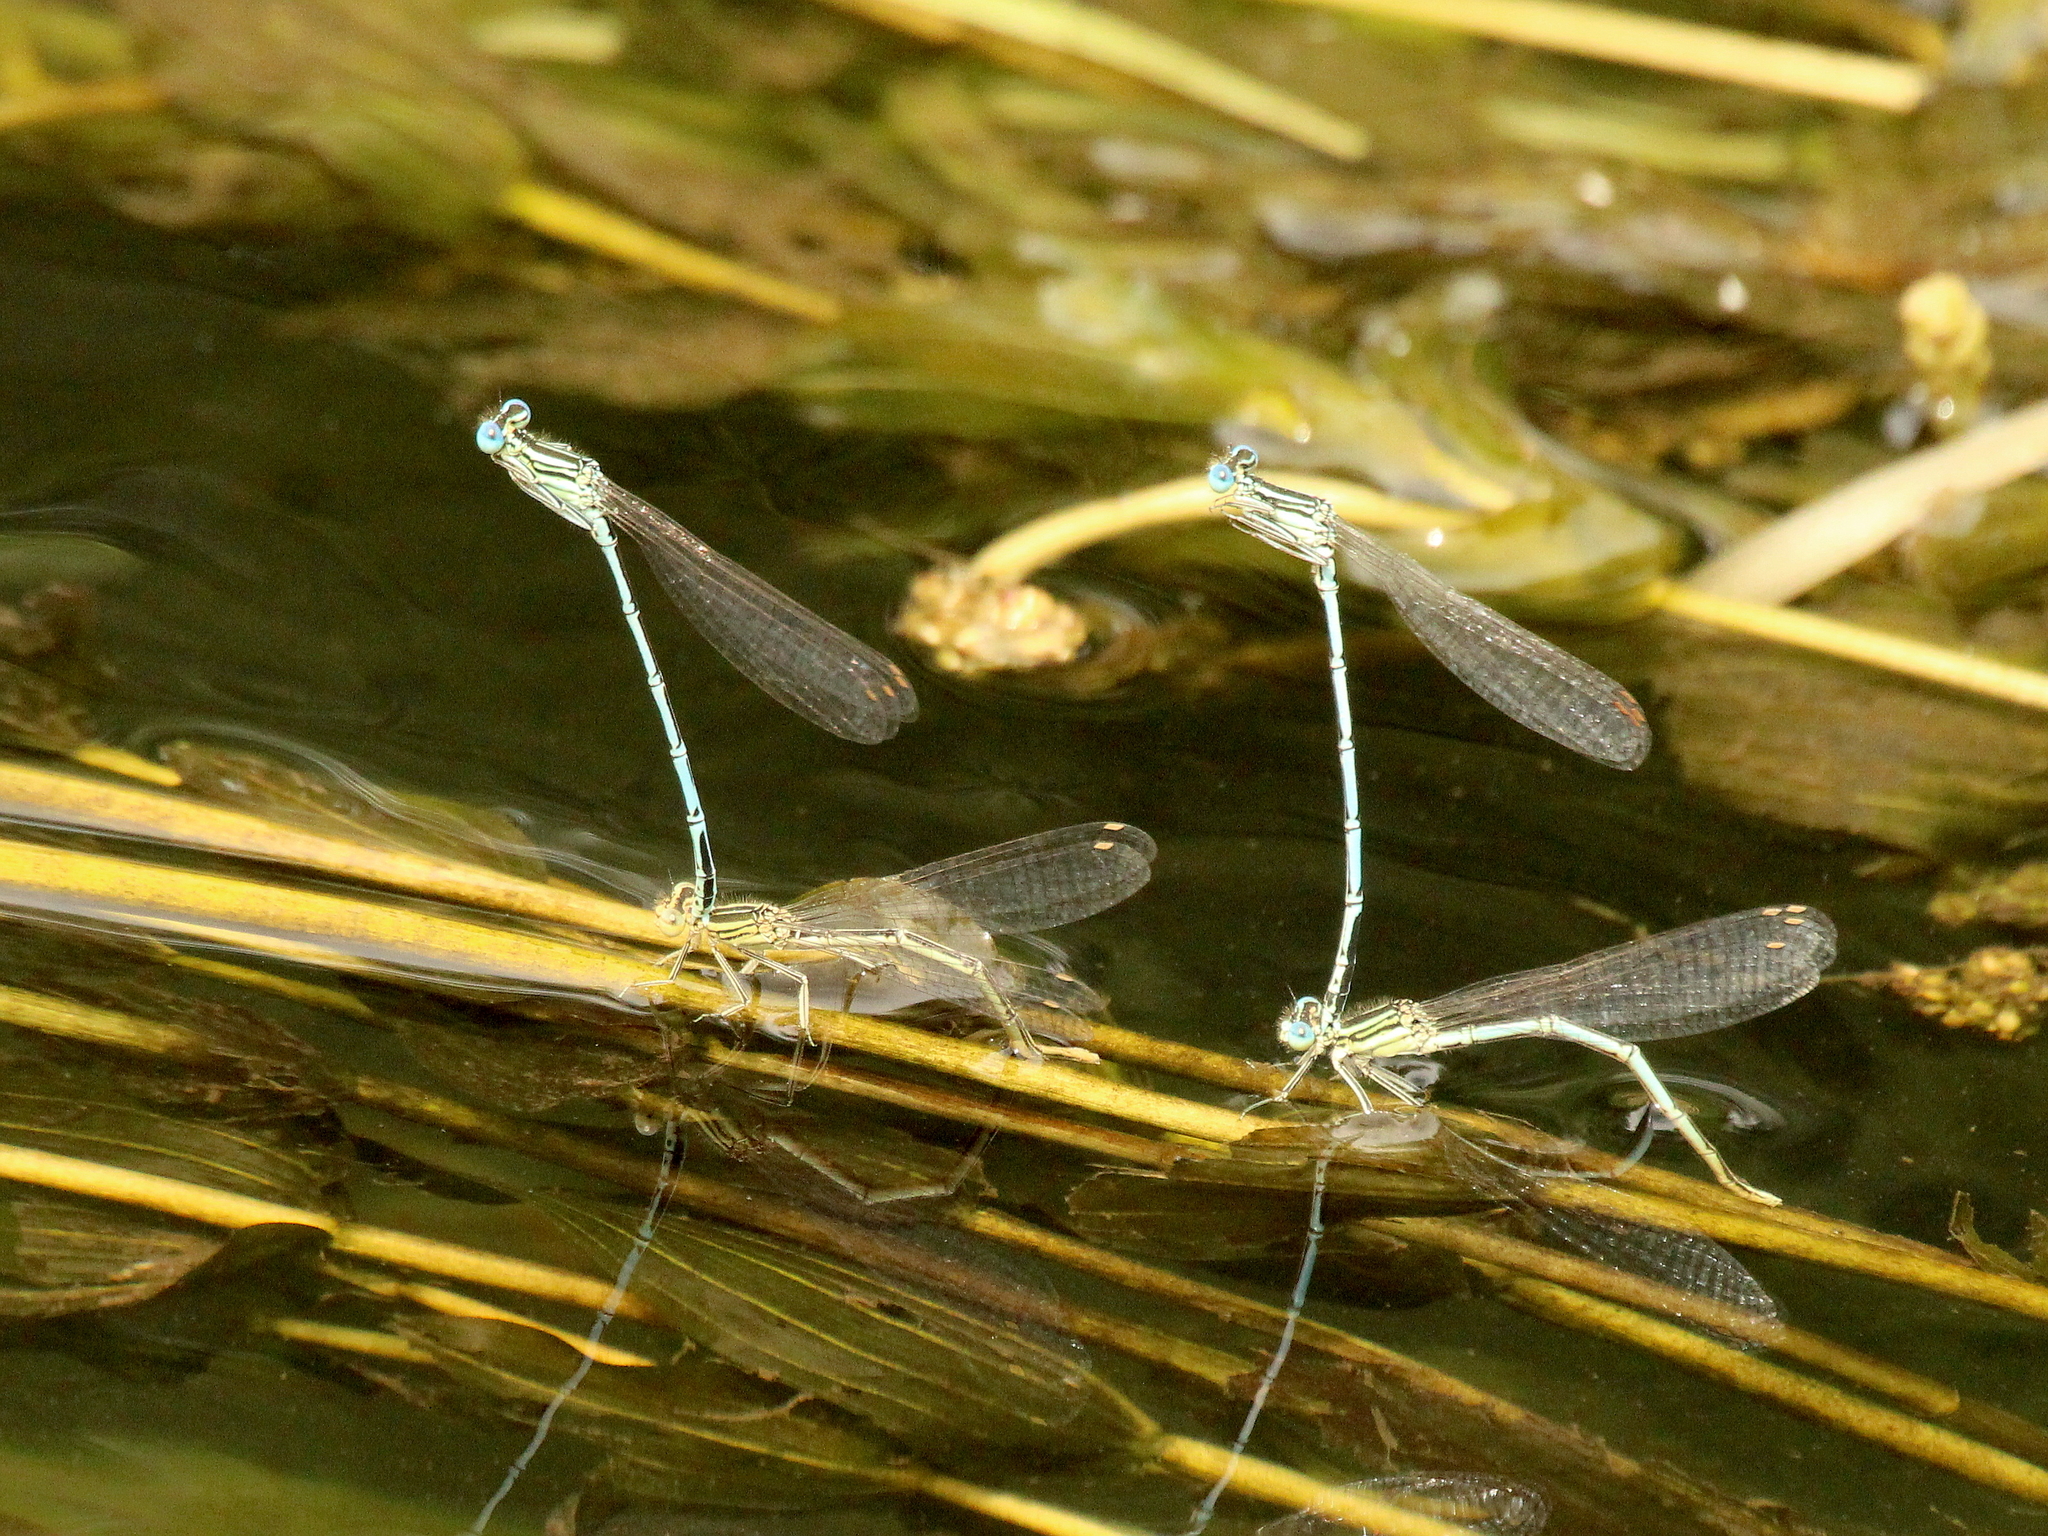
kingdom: Animalia
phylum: Arthropoda
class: Insecta
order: Odonata
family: Platycnemididae
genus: Platycnemis
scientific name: Platycnemis pennipes
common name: White-legged damselfly
